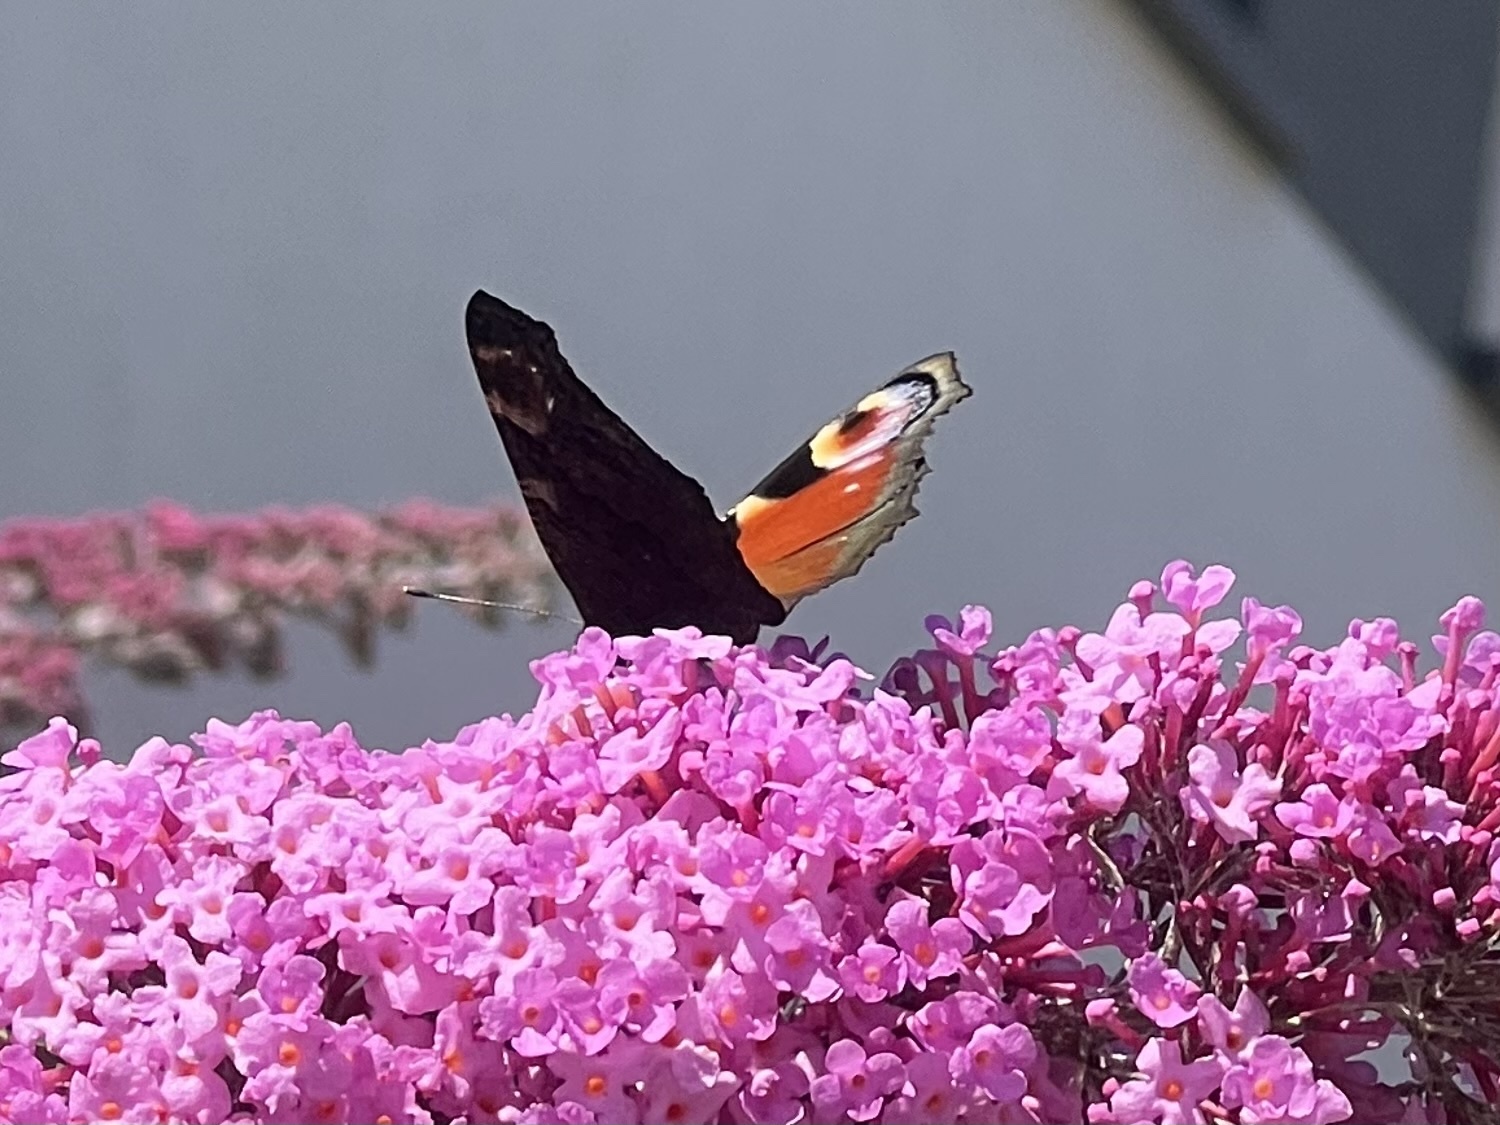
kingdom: Animalia
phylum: Arthropoda
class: Insecta
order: Lepidoptera
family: Nymphalidae
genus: Aglais
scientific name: Aglais io
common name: Peacock
